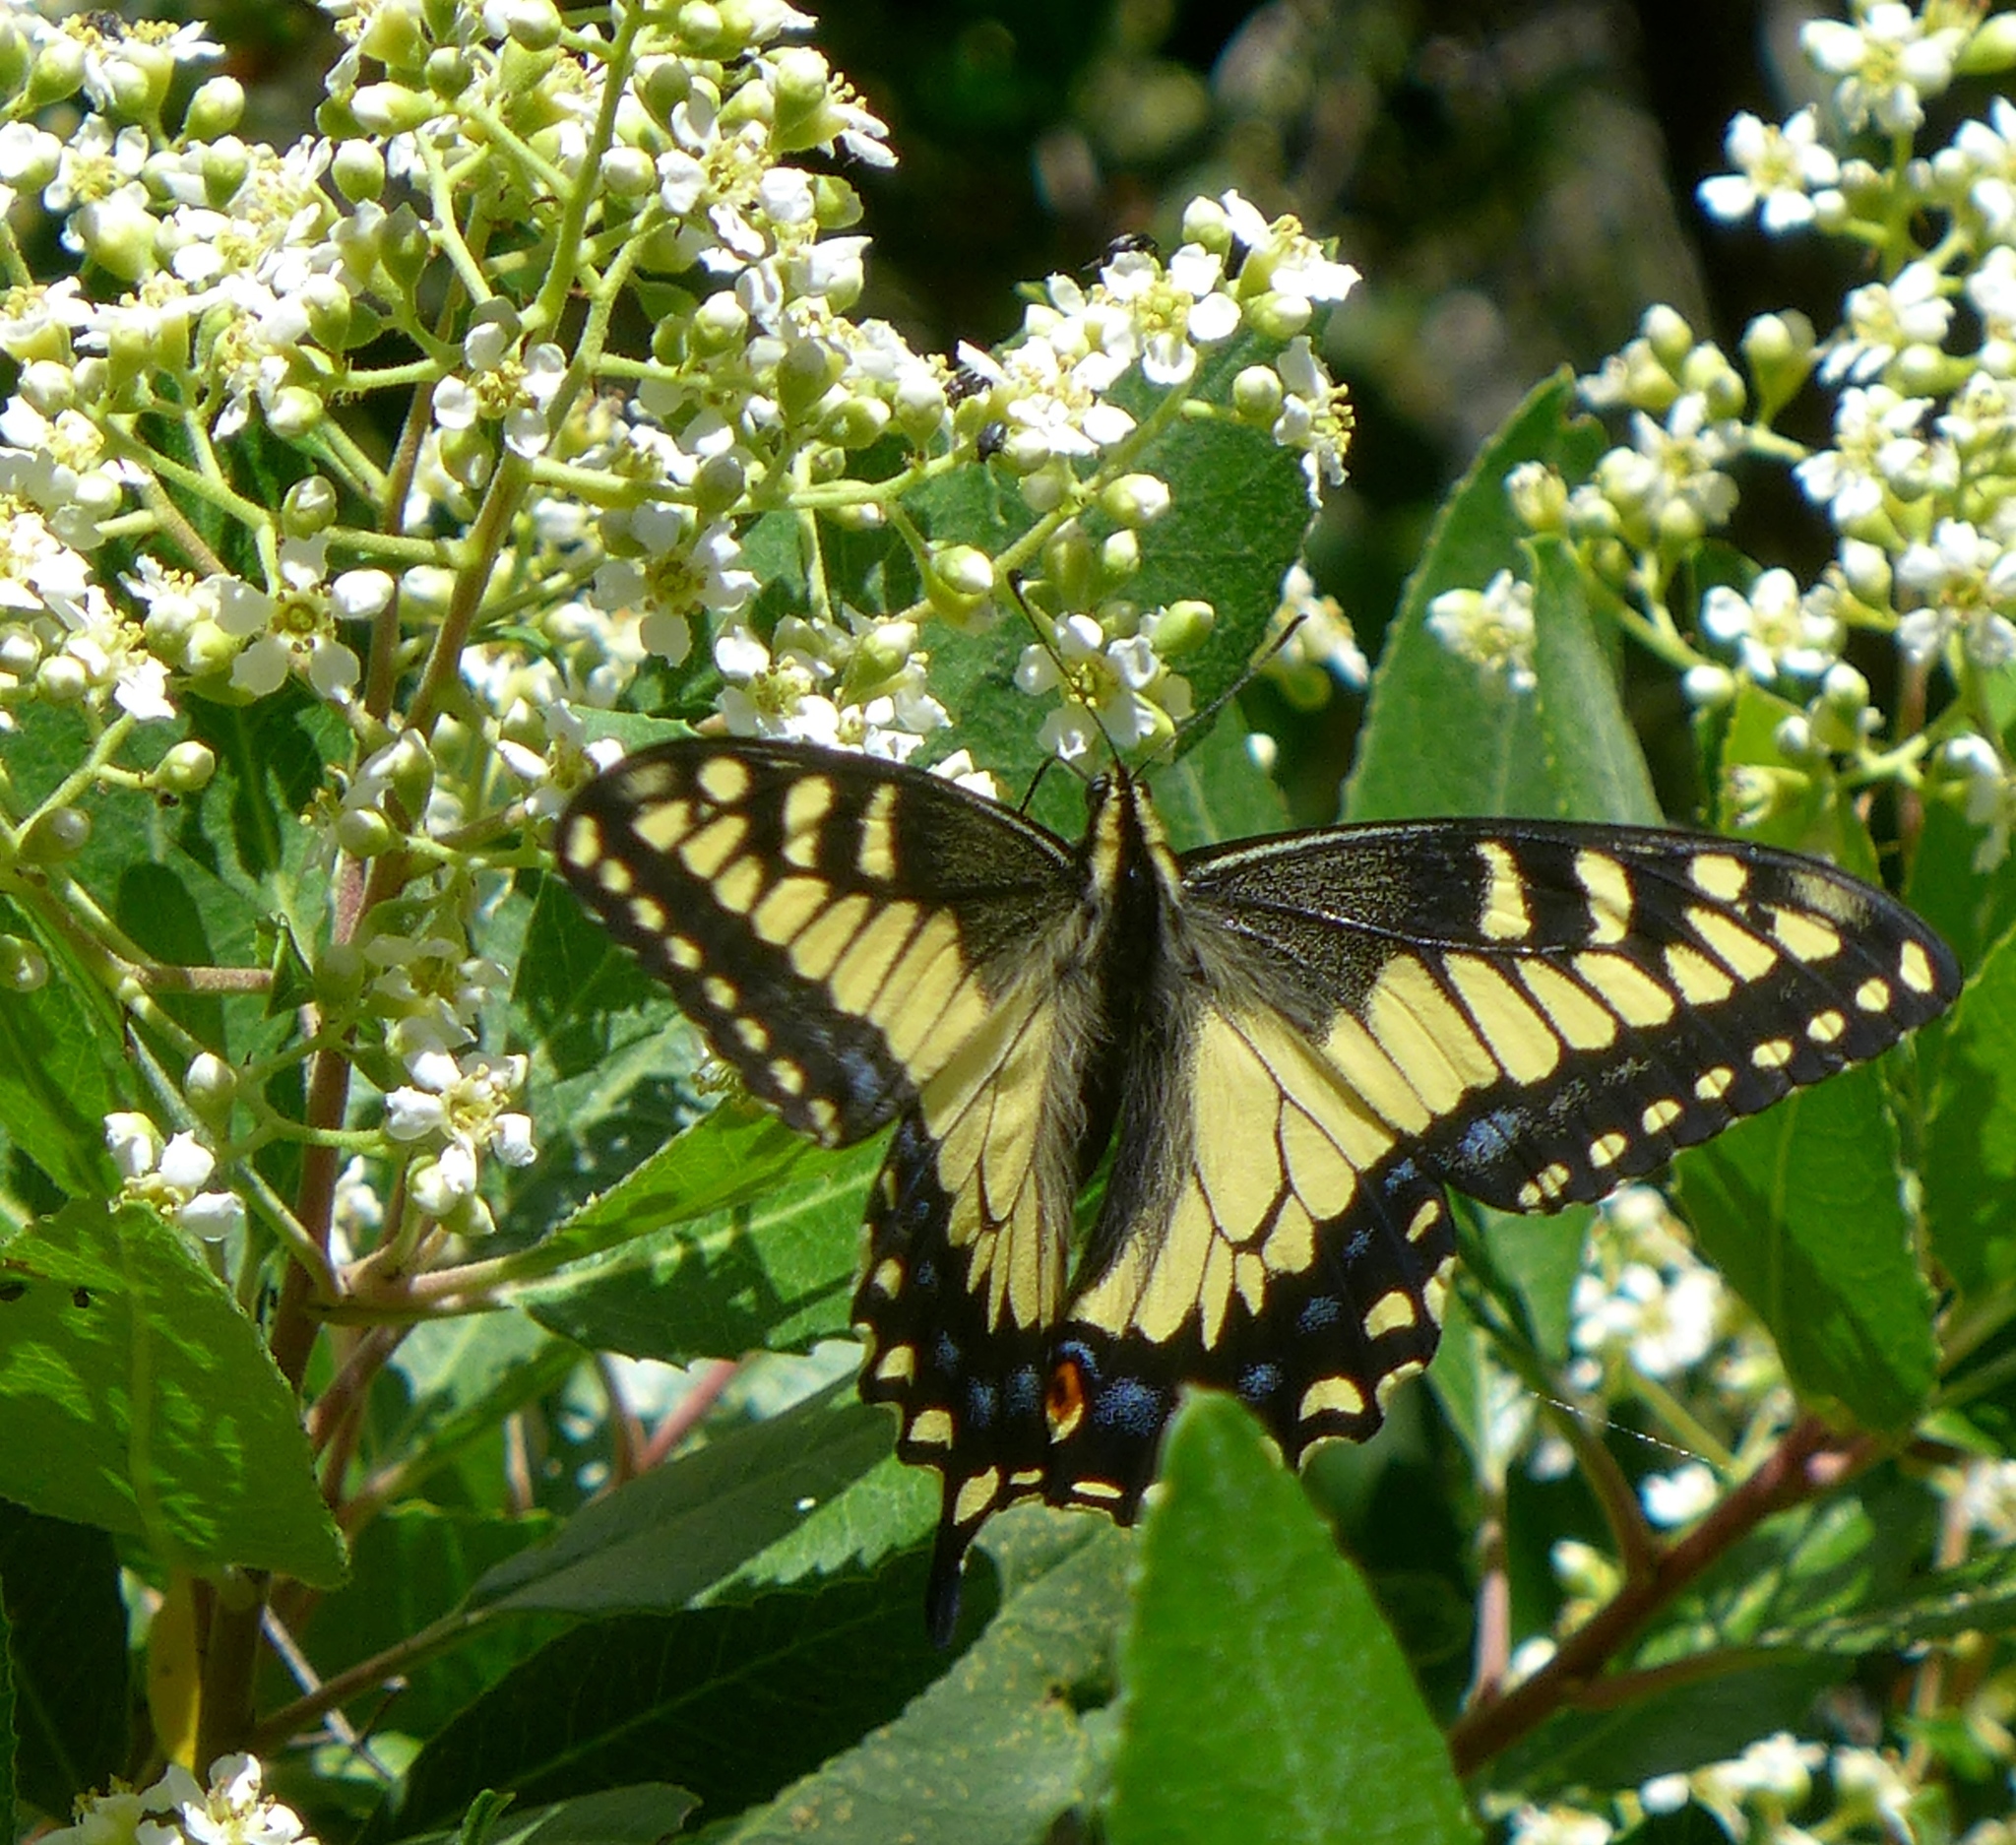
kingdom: Animalia
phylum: Arthropoda
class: Insecta
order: Lepidoptera
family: Papilionidae
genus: Papilio
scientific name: Papilio zelicaon
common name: Anise swallowtail
